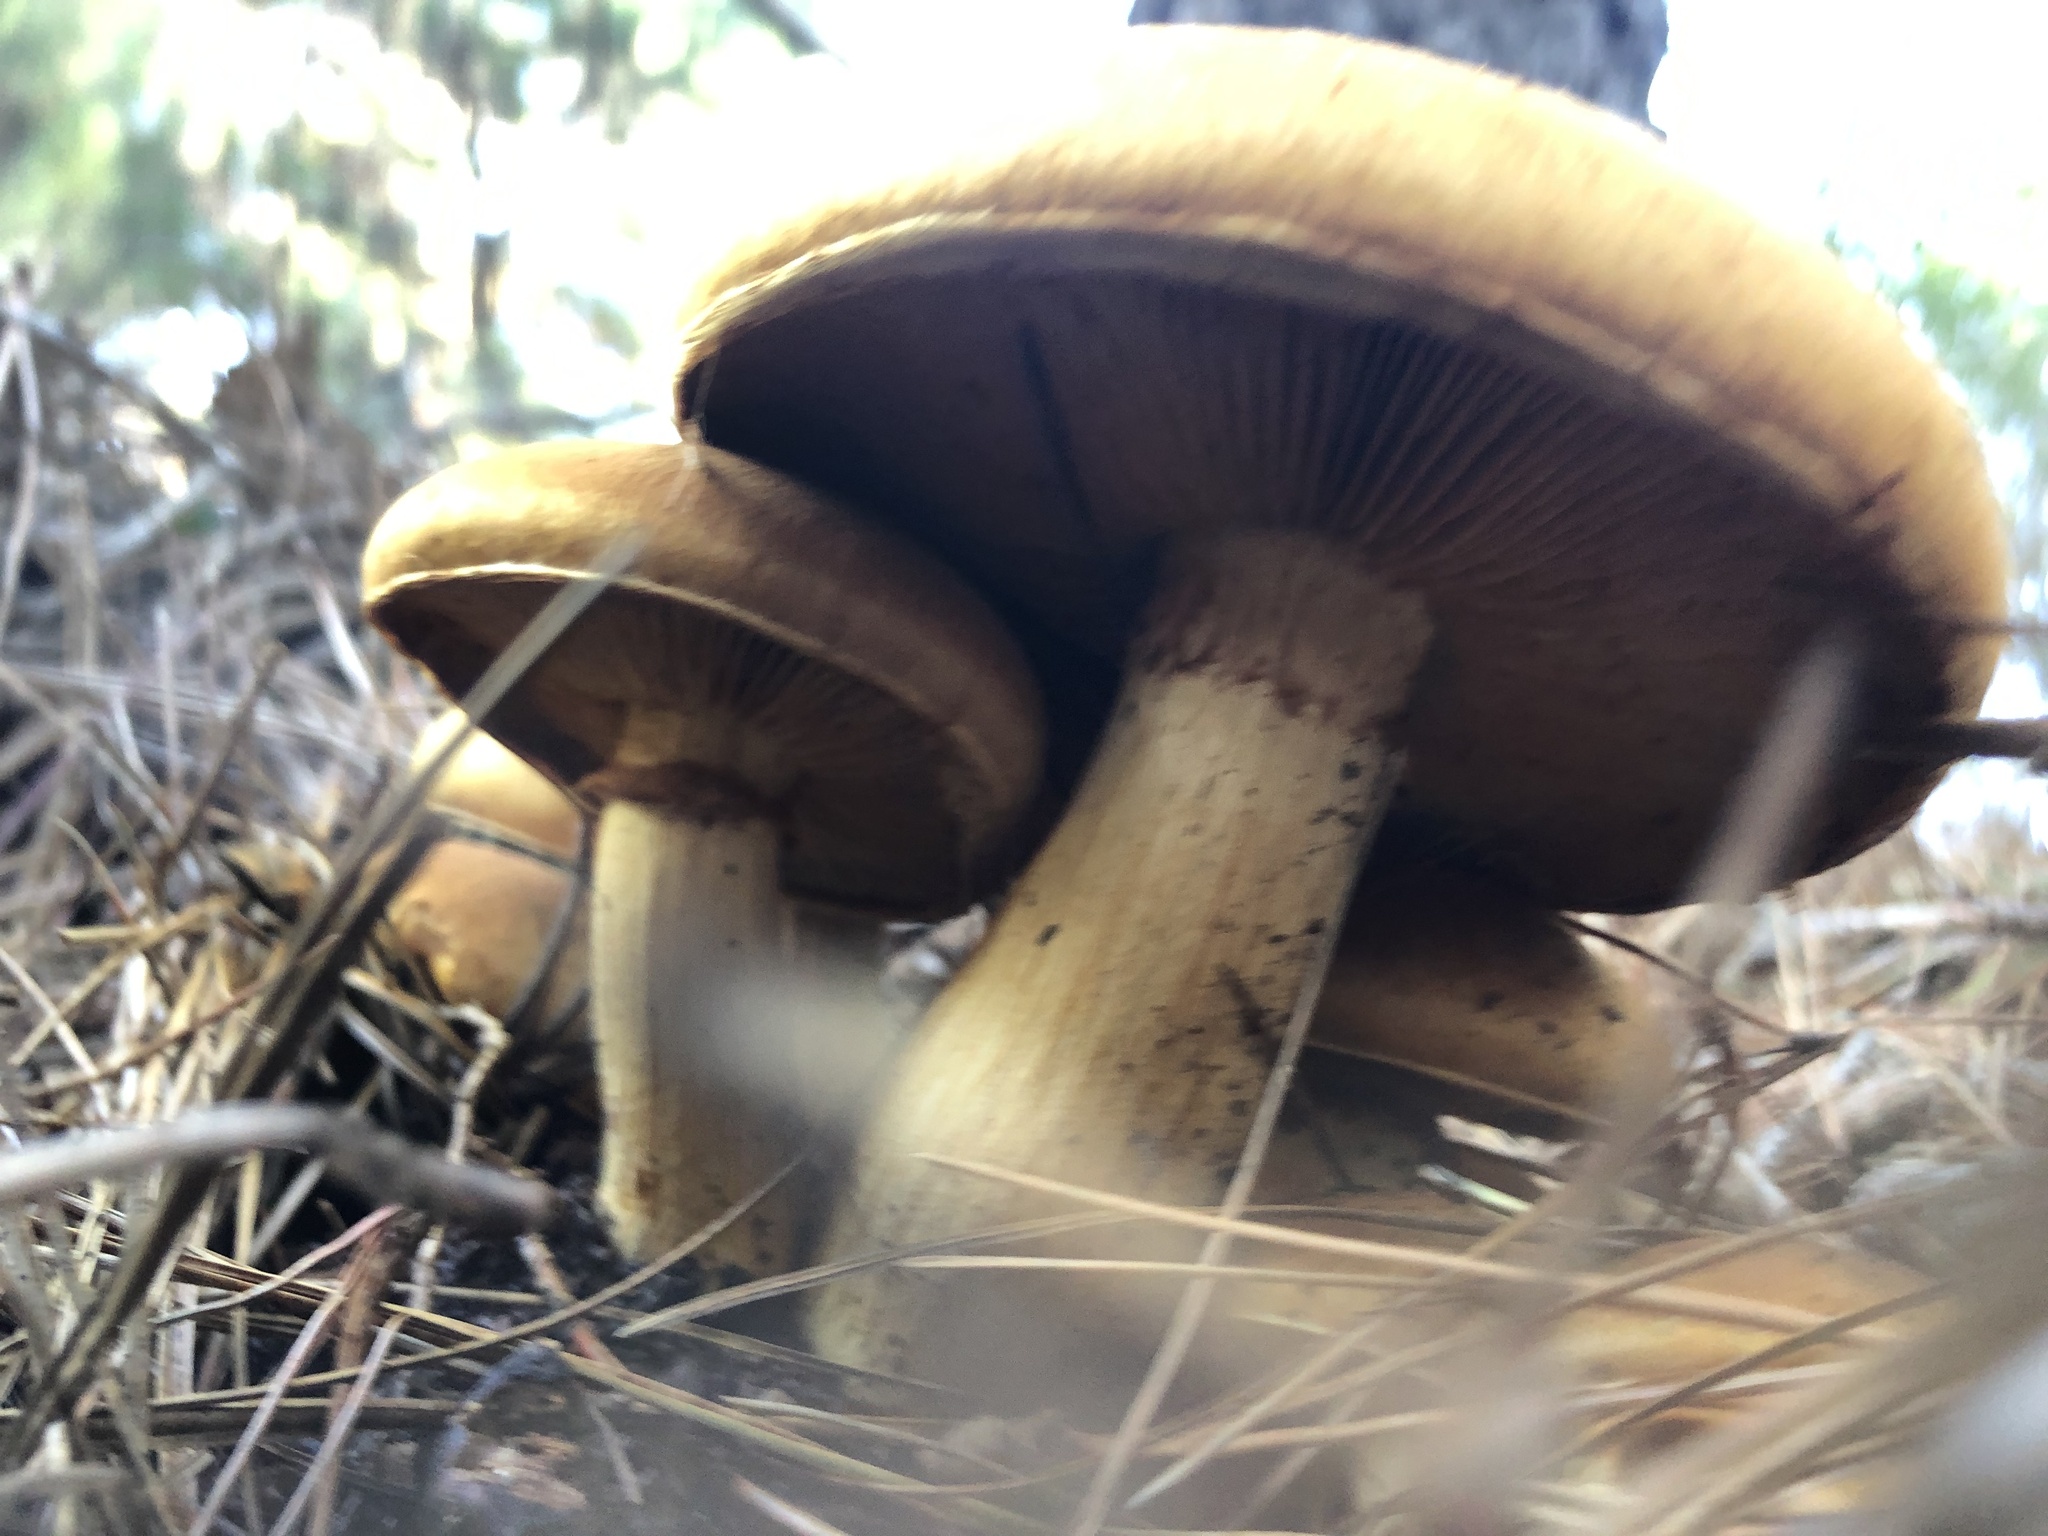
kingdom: Fungi
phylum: Basidiomycota
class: Agaricomycetes
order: Agaricales
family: Hymenogastraceae
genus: Gymnopilus
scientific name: Gymnopilus ventricosus
